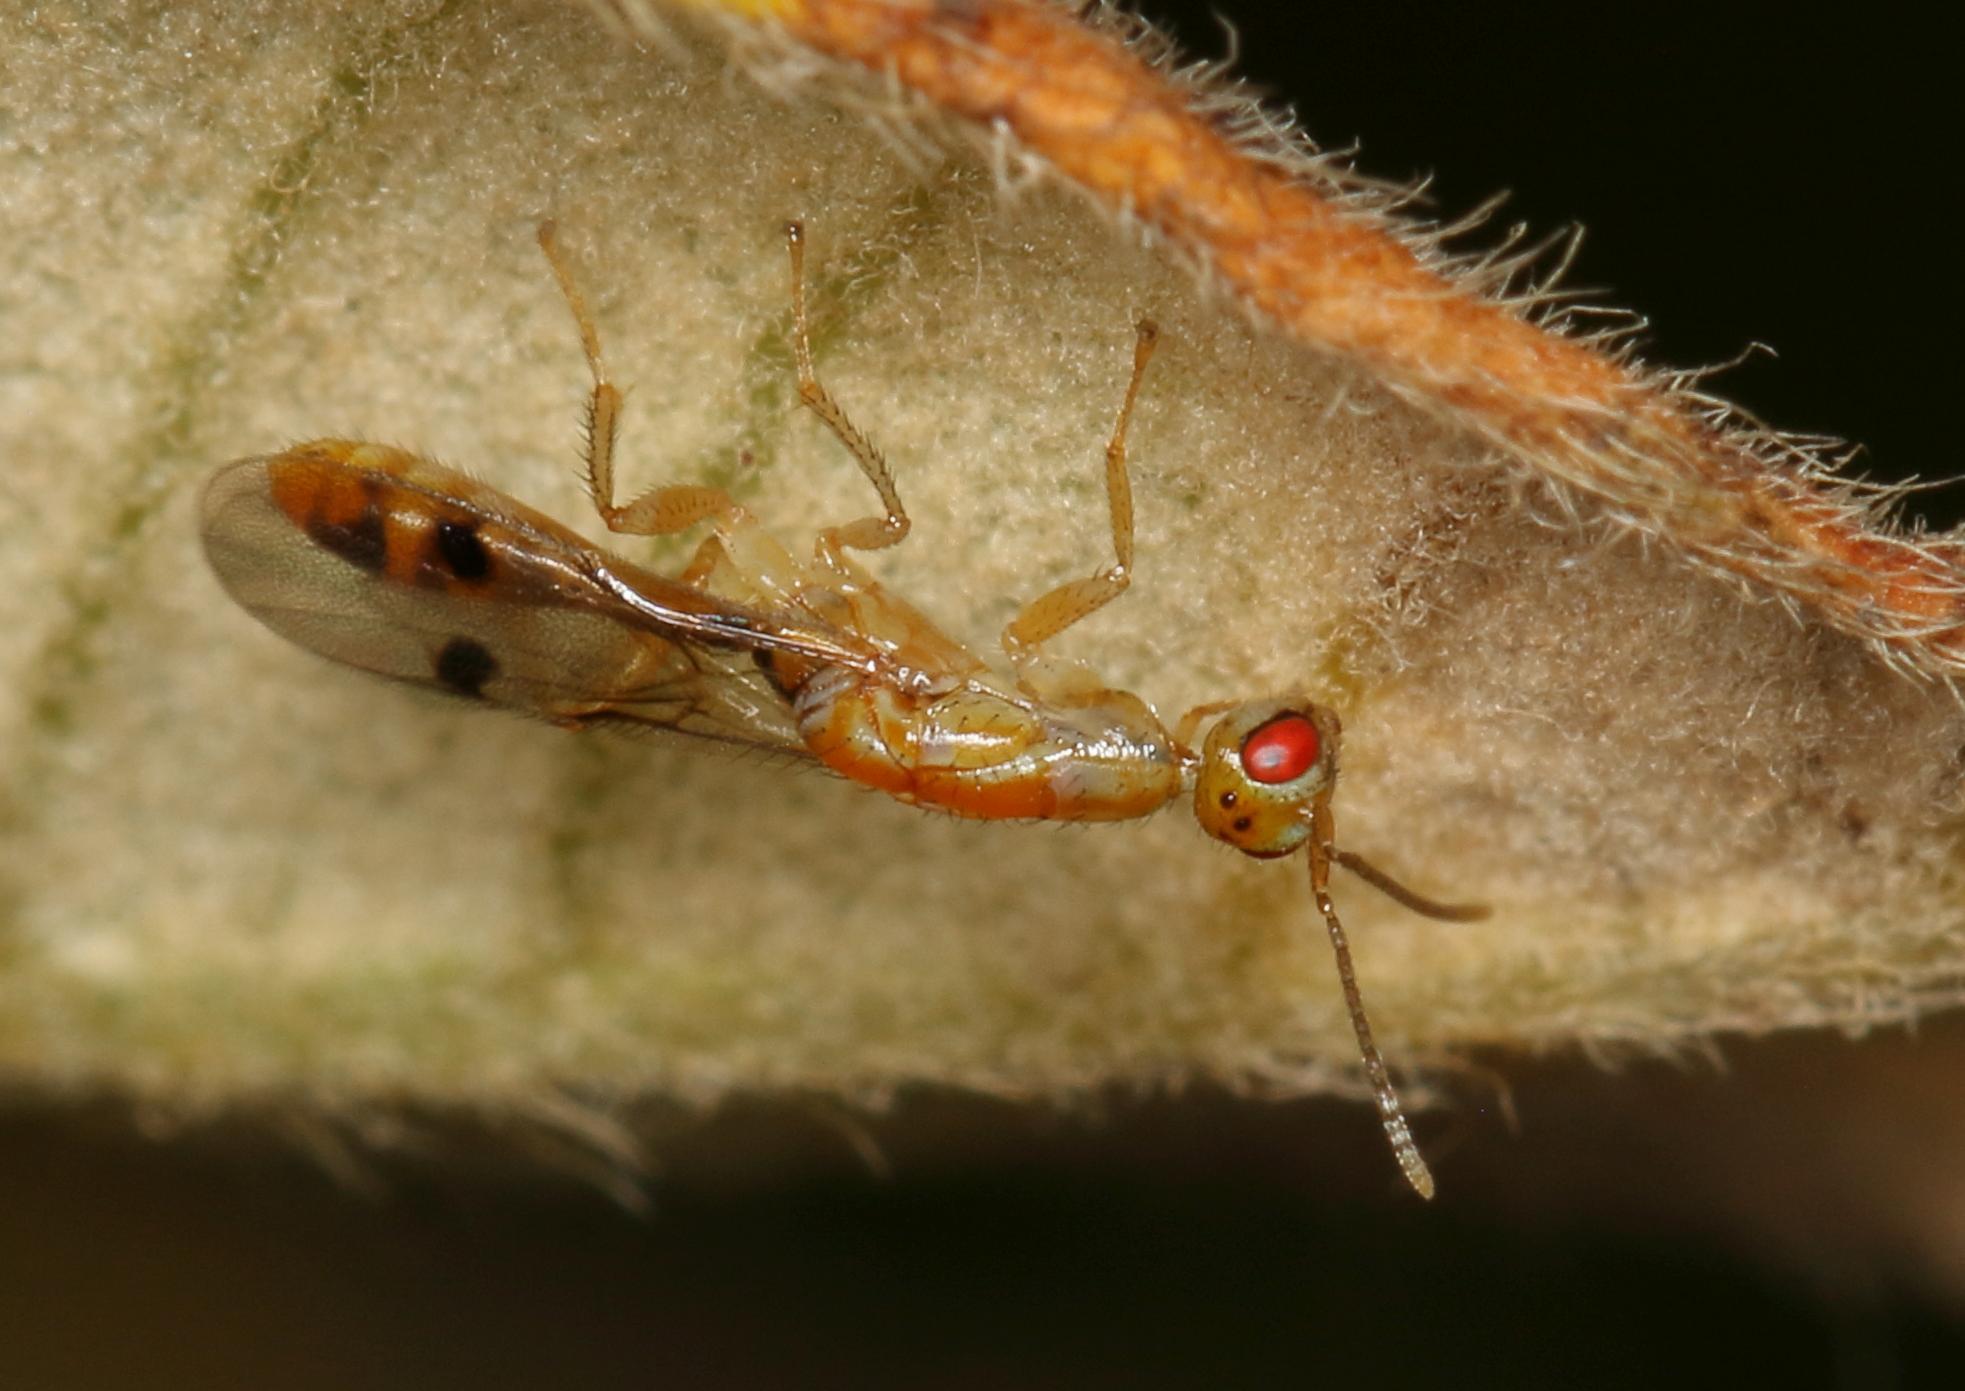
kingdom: Plantae
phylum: Tracheophyta
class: Magnoliopsida
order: Sapindales
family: Anacardiaceae
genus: Searsia
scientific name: Searsia discolor
